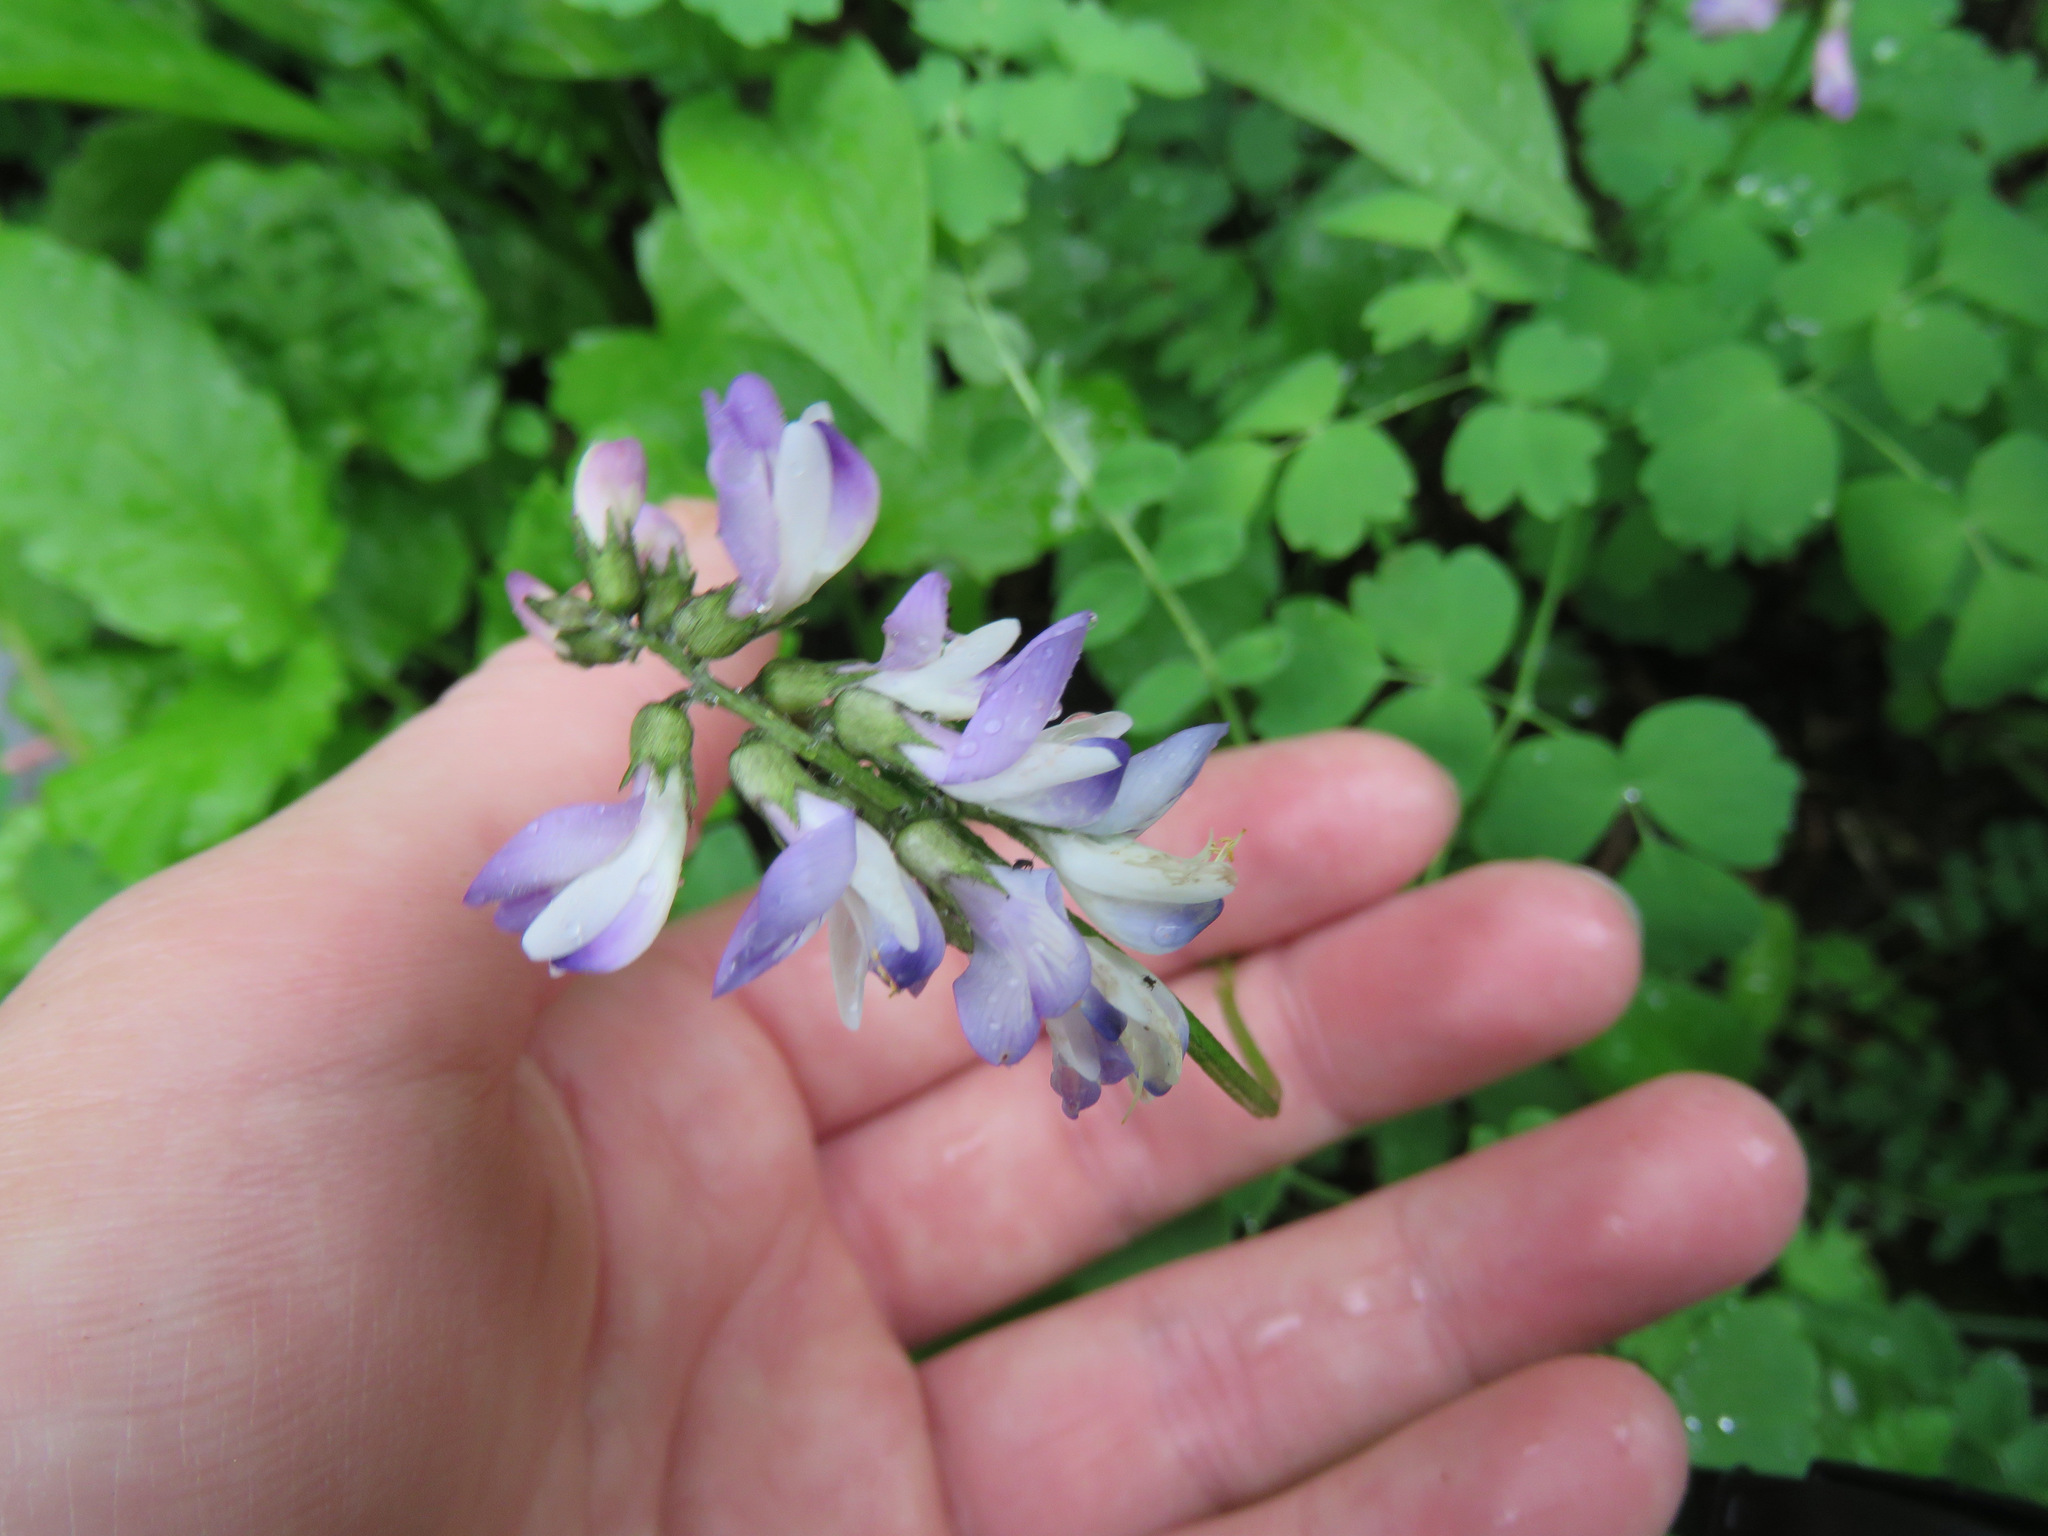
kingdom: Plantae
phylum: Tracheophyta
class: Magnoliopsida
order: Fabales
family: Fabaceae
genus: Astragalus
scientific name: Astragalus alpinus
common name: Alpine milk-vetch
